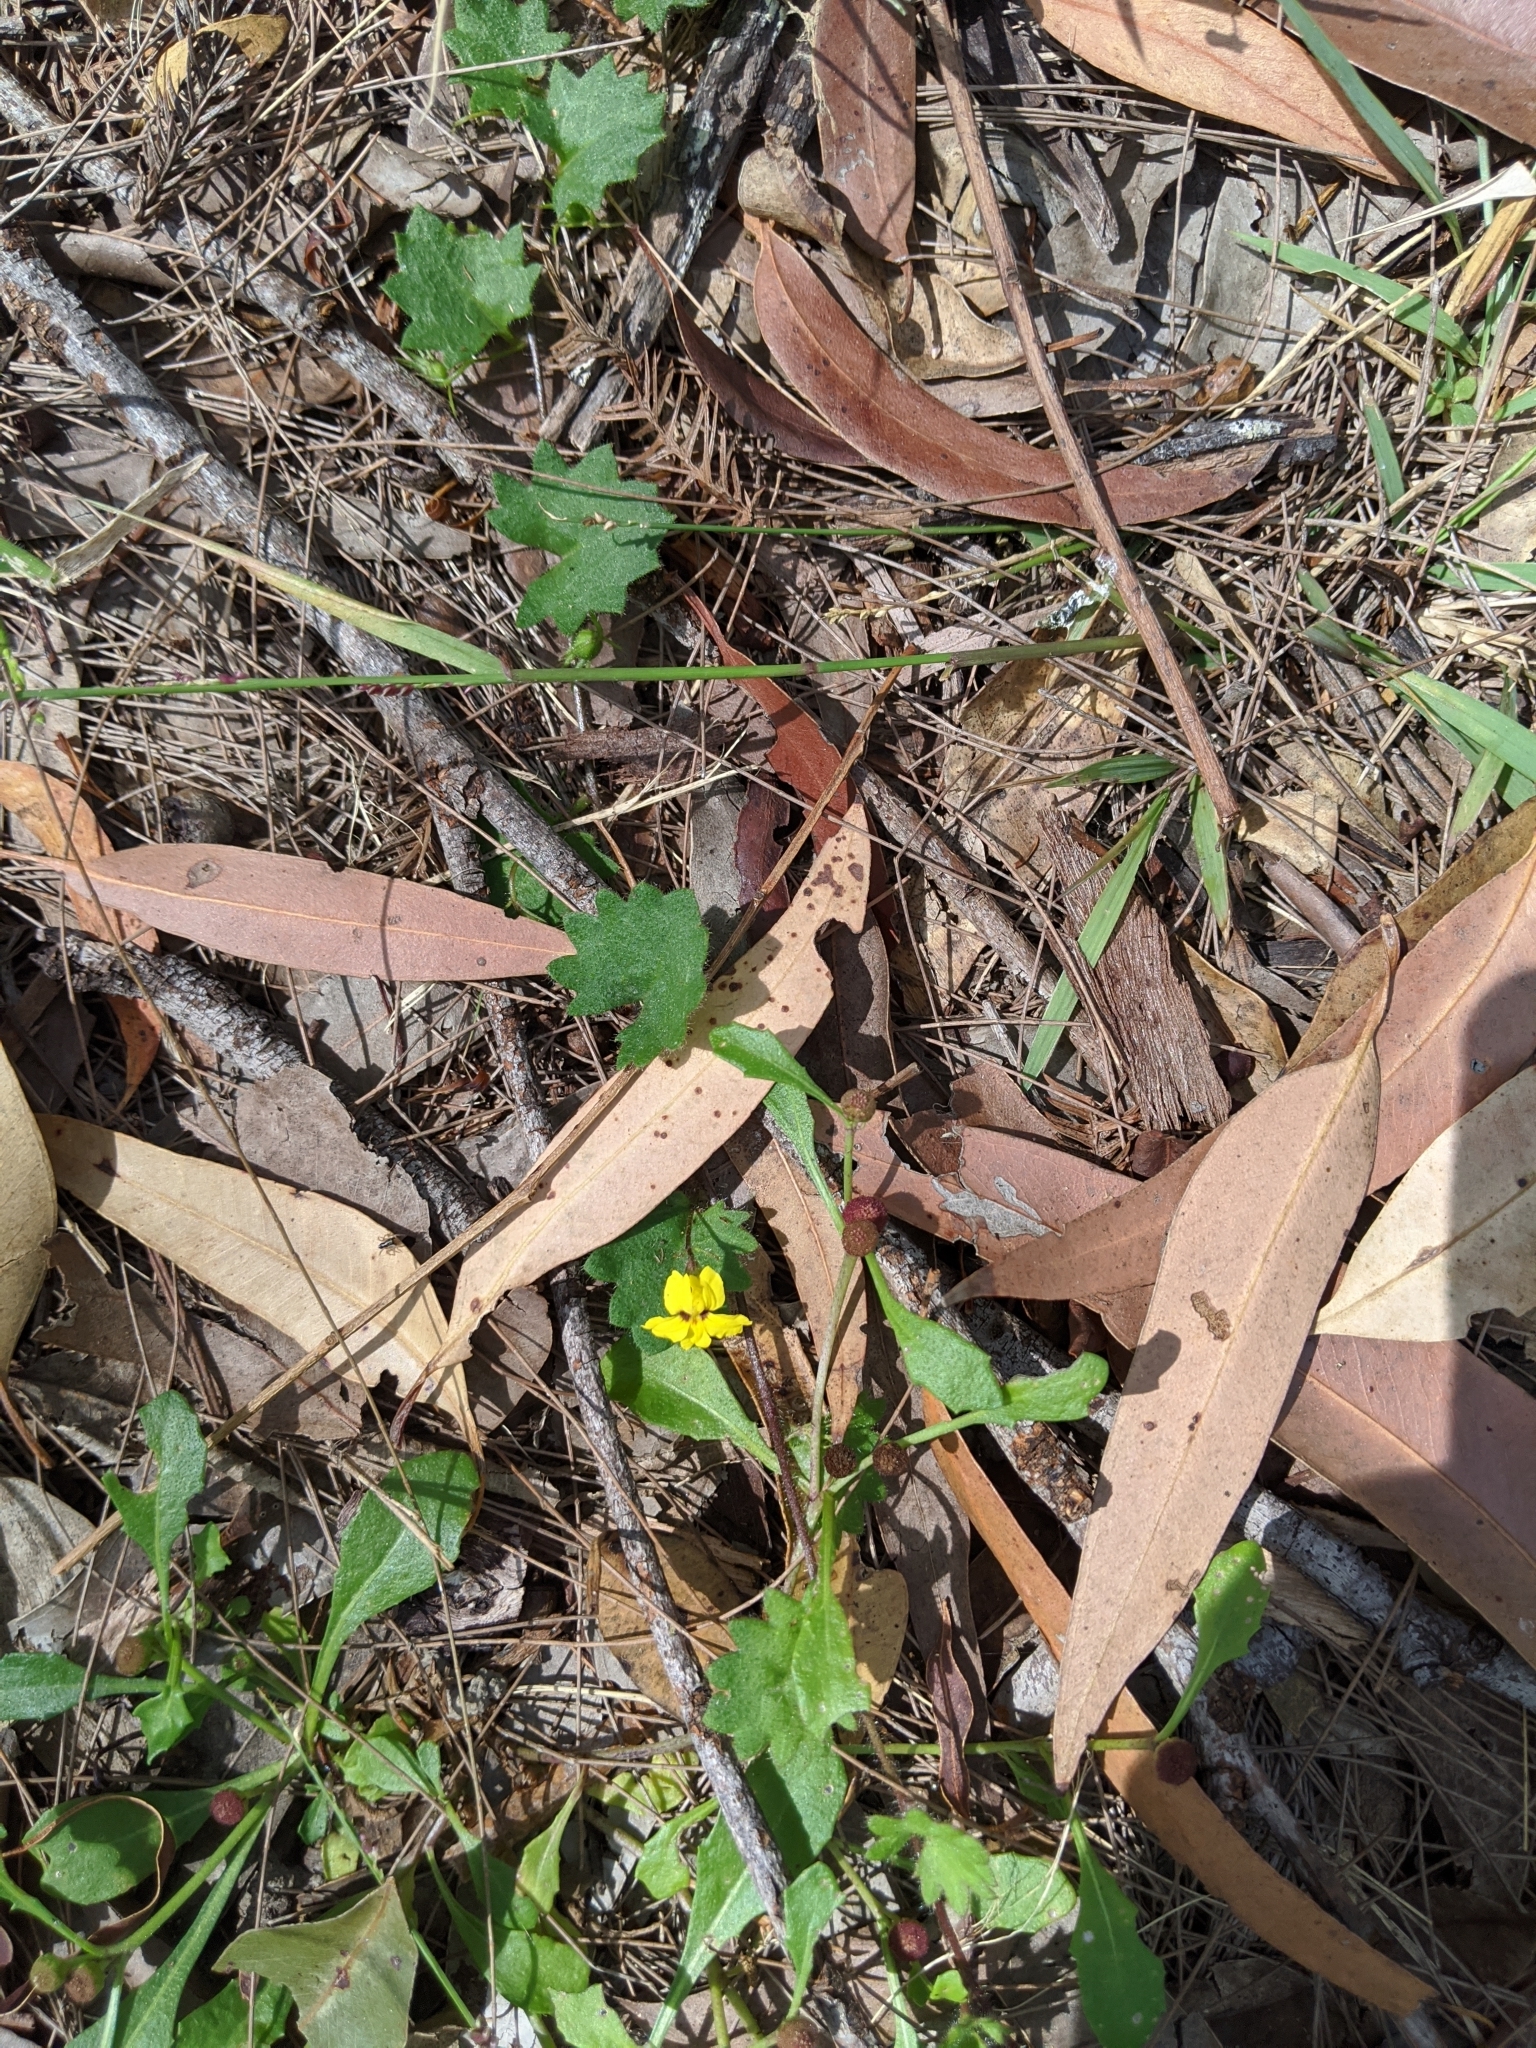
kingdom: Plantae
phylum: Tracheophyta
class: Magnoliopsida
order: Asterales
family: Goodeniaceae
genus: Goodenia
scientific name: Goodenia rotundifolia
